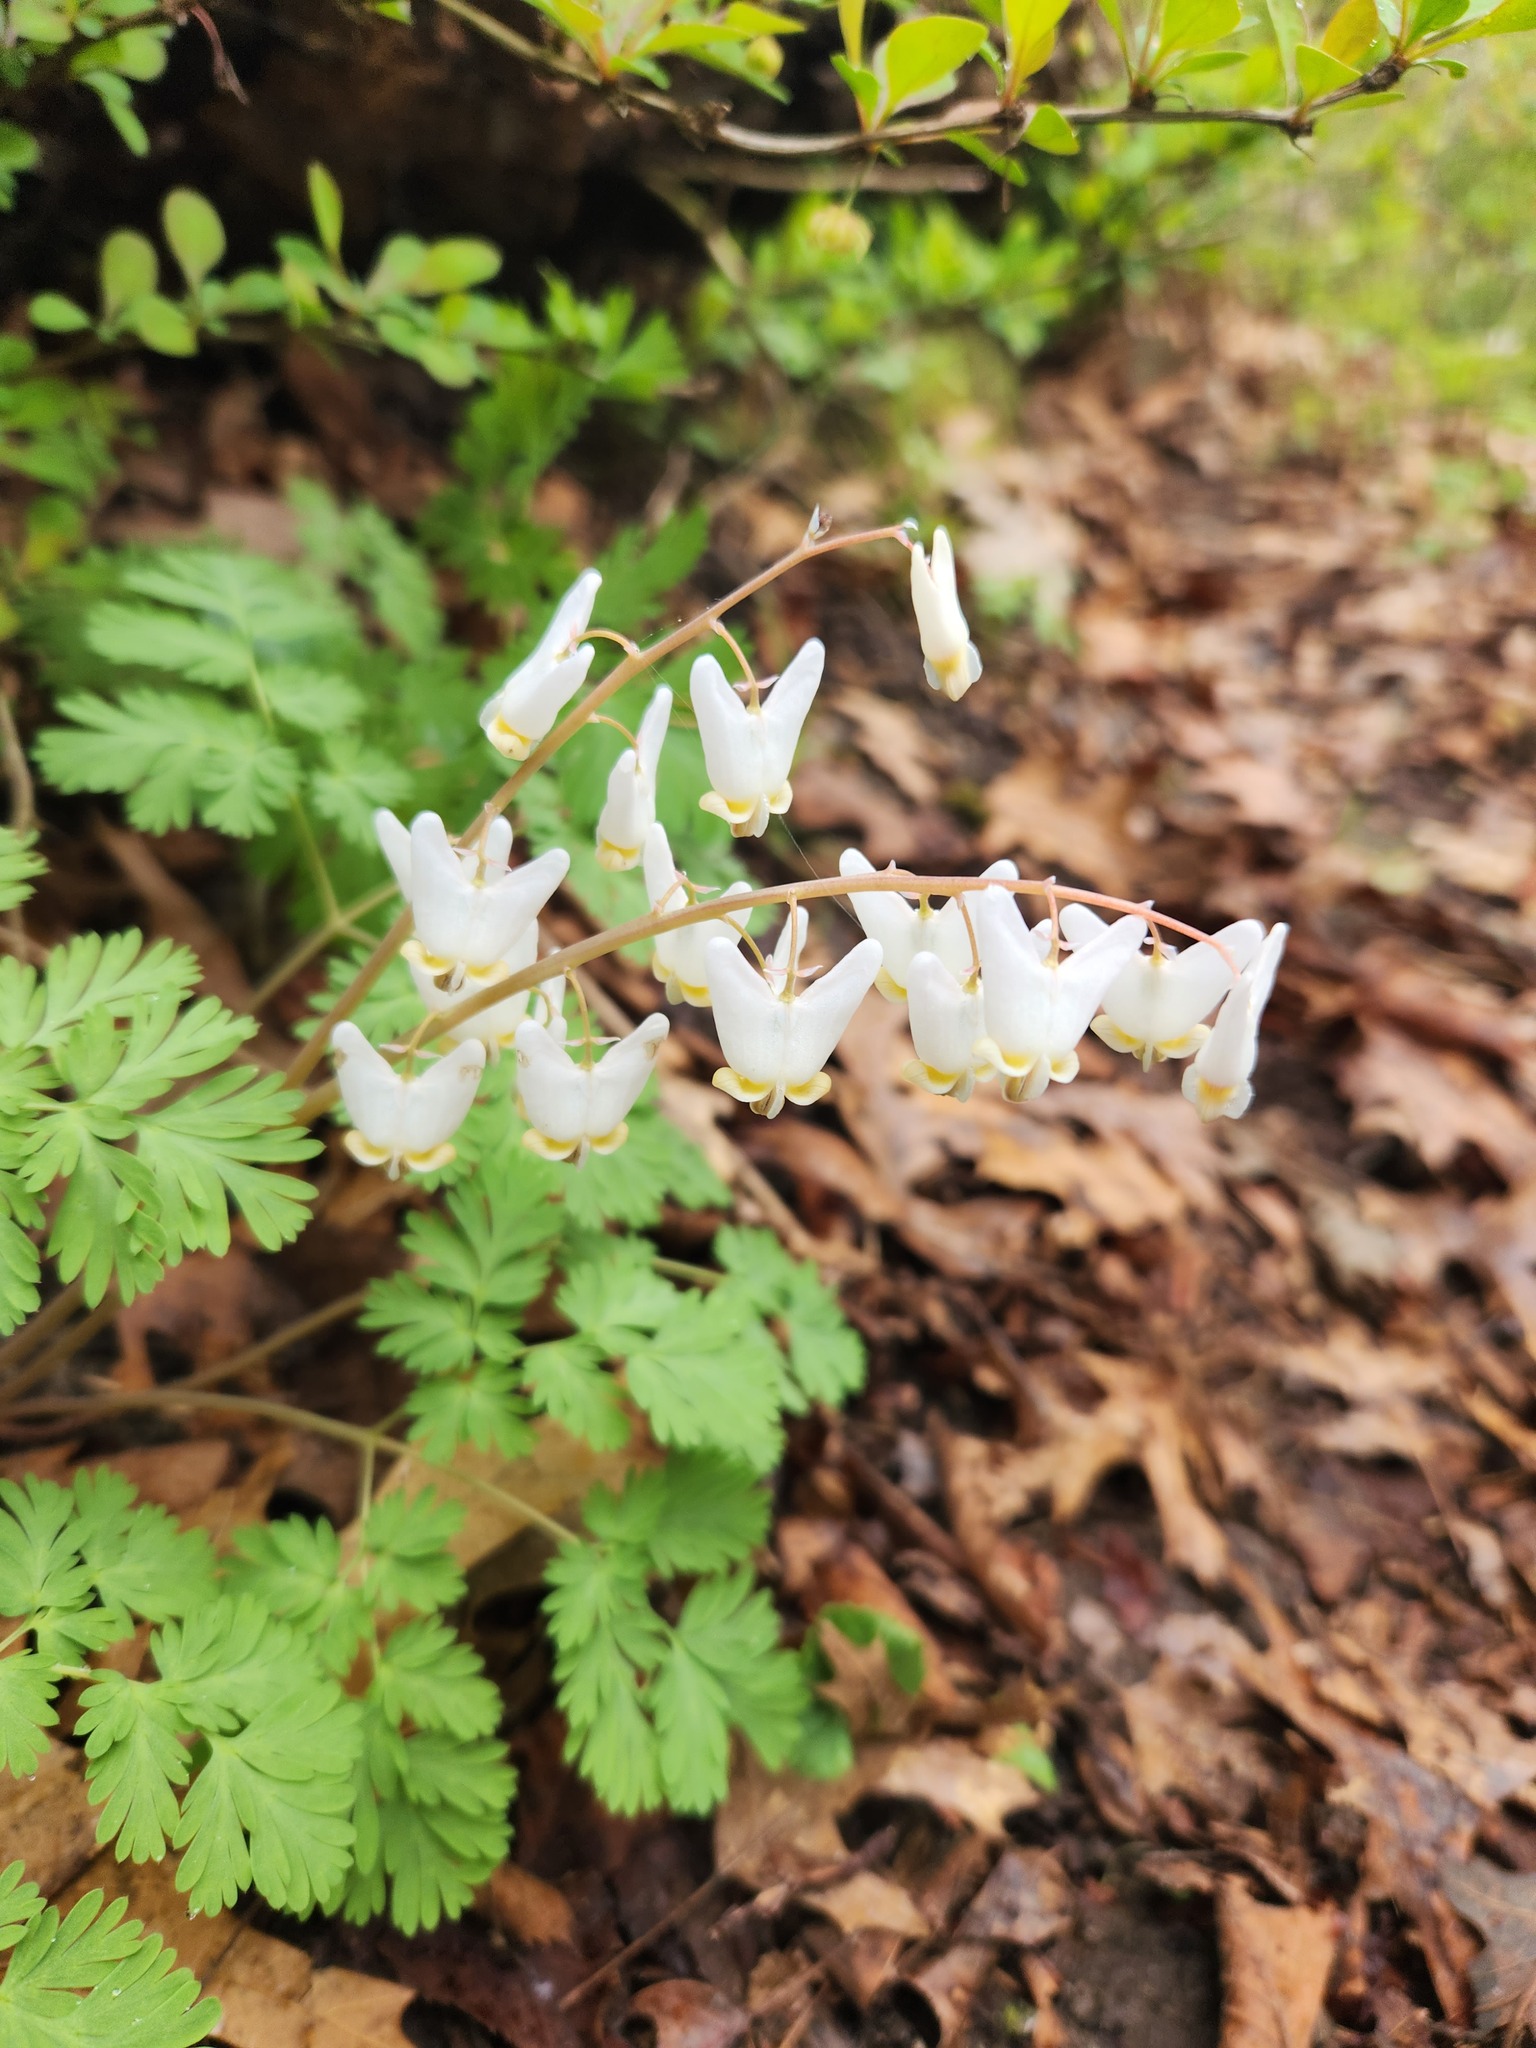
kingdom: Plantae
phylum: Tracheophyta
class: Magnoliopsida
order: Ranunculales
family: Papaveraceae
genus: Dicentra
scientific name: Dicentra cucullaria
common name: Dutchman's breeches
